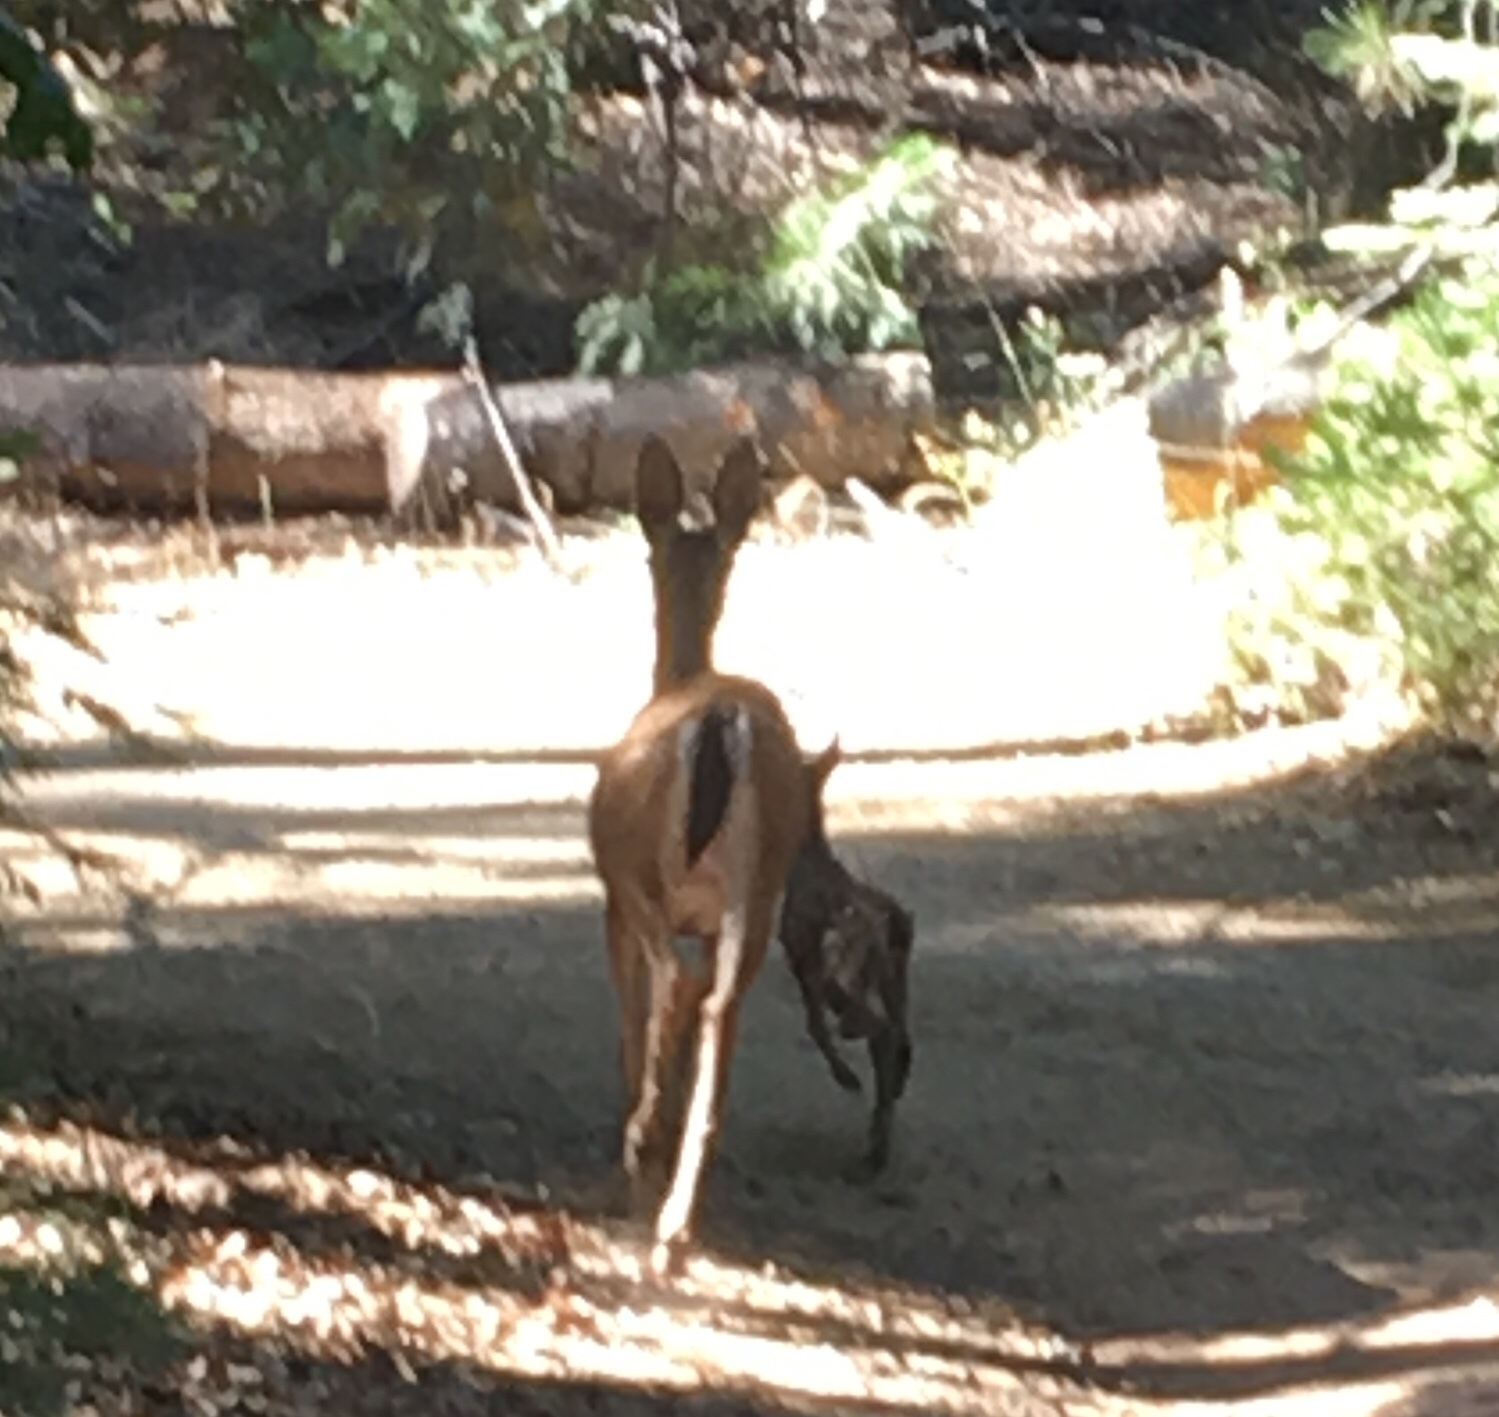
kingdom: Animalia
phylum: Chordata
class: Mammalia
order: Artiodactyla
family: Cervidae
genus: Odocoileus
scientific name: Odocoileus hemionus
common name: Mule deer
